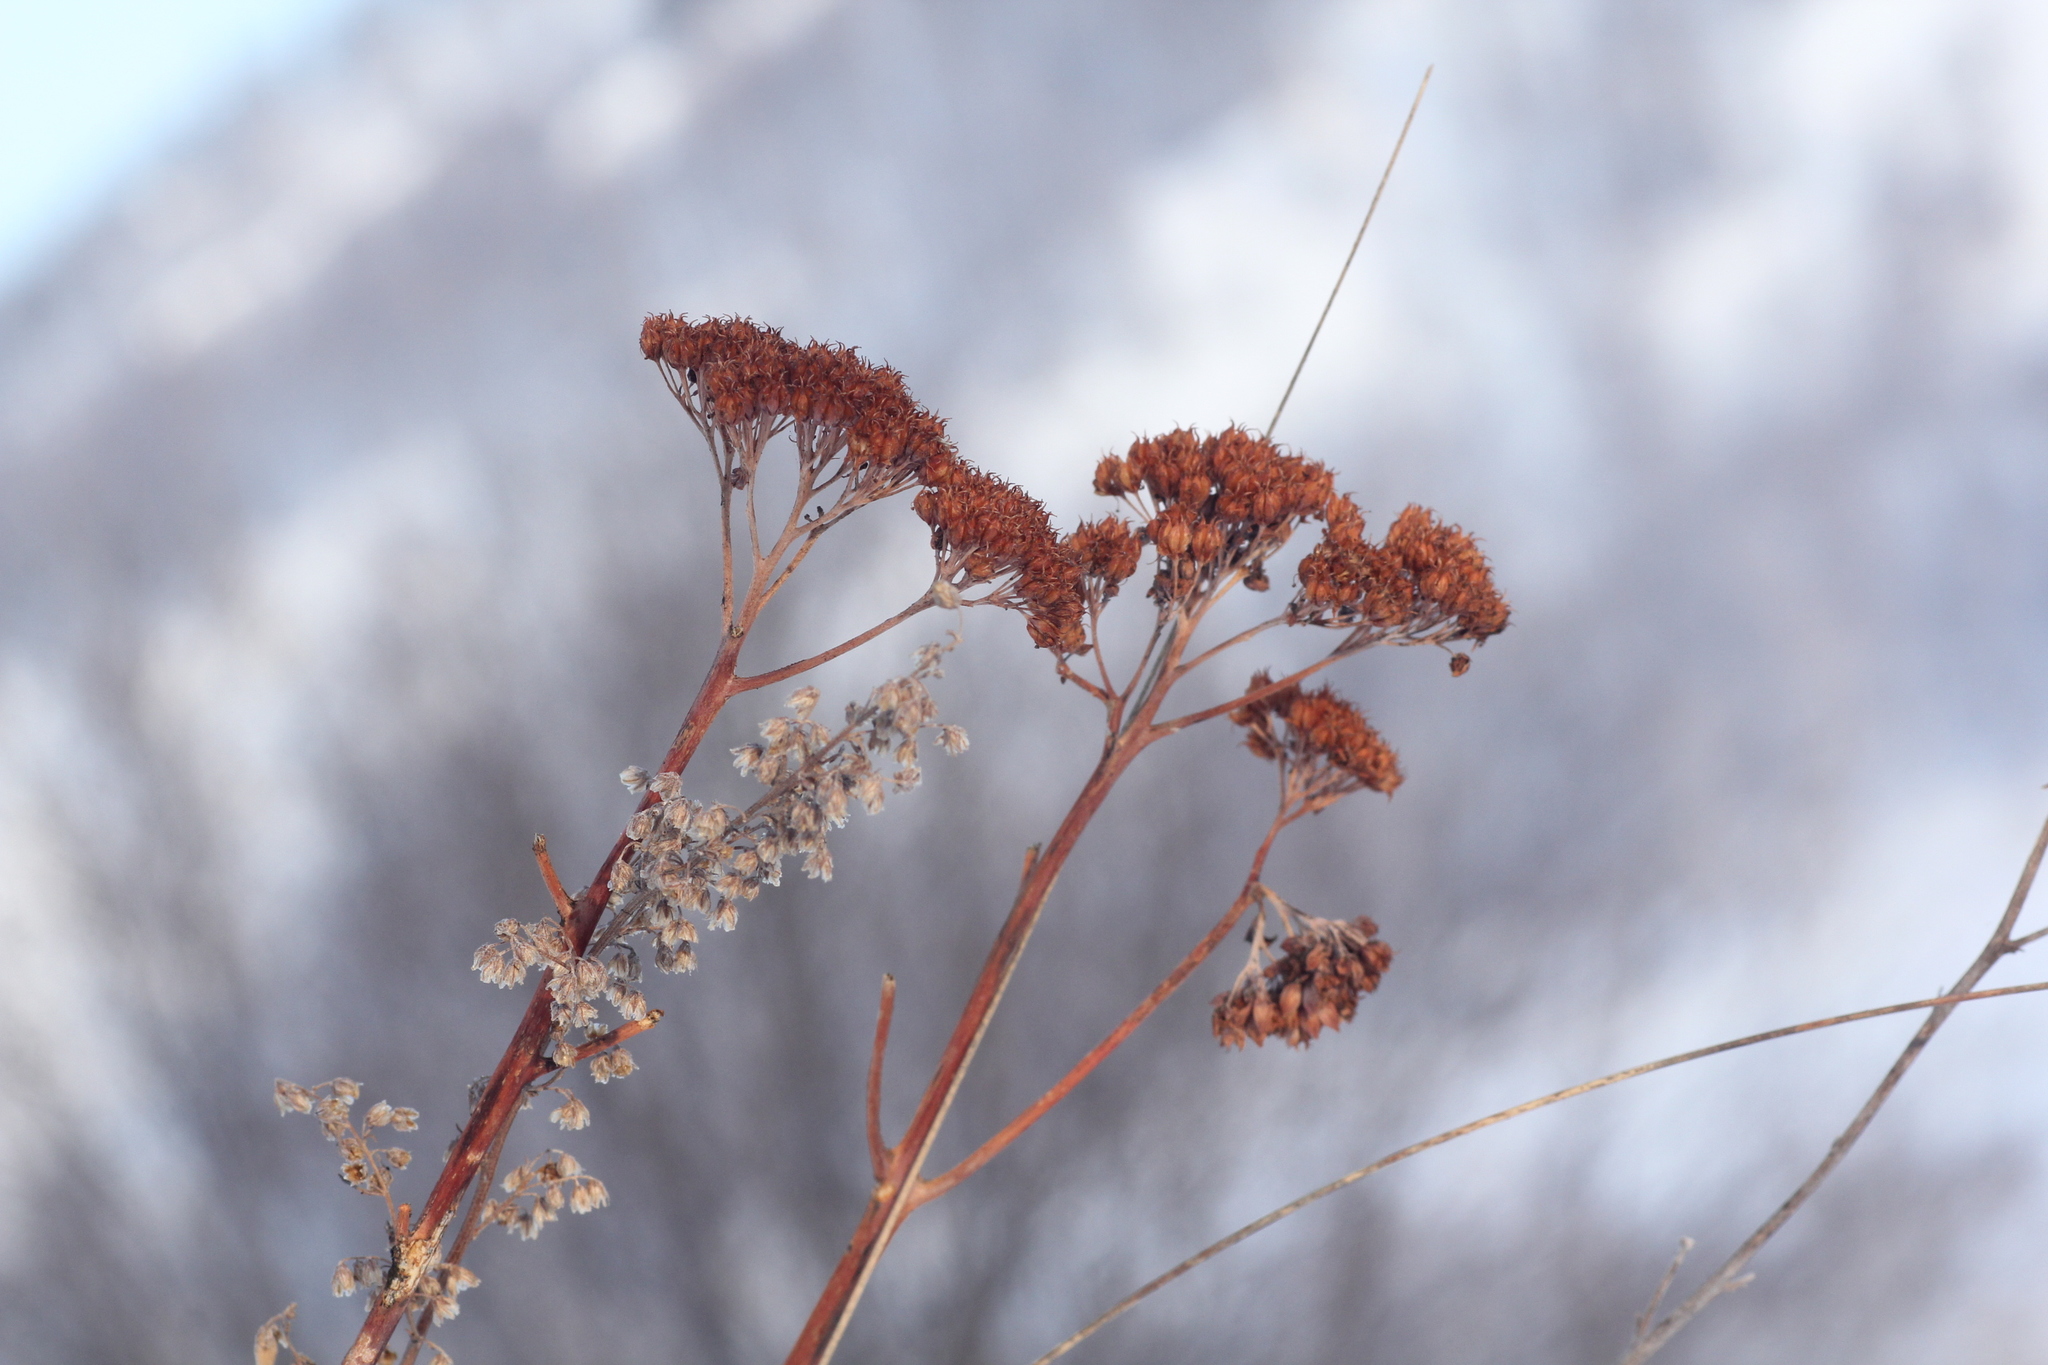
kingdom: Plantae
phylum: Tracheophyta
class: Magnoliopsida
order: Saxifragales
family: Crassulaceae
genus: Hylotelephium
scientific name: Hylotelephium telephium
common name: Live-forever
